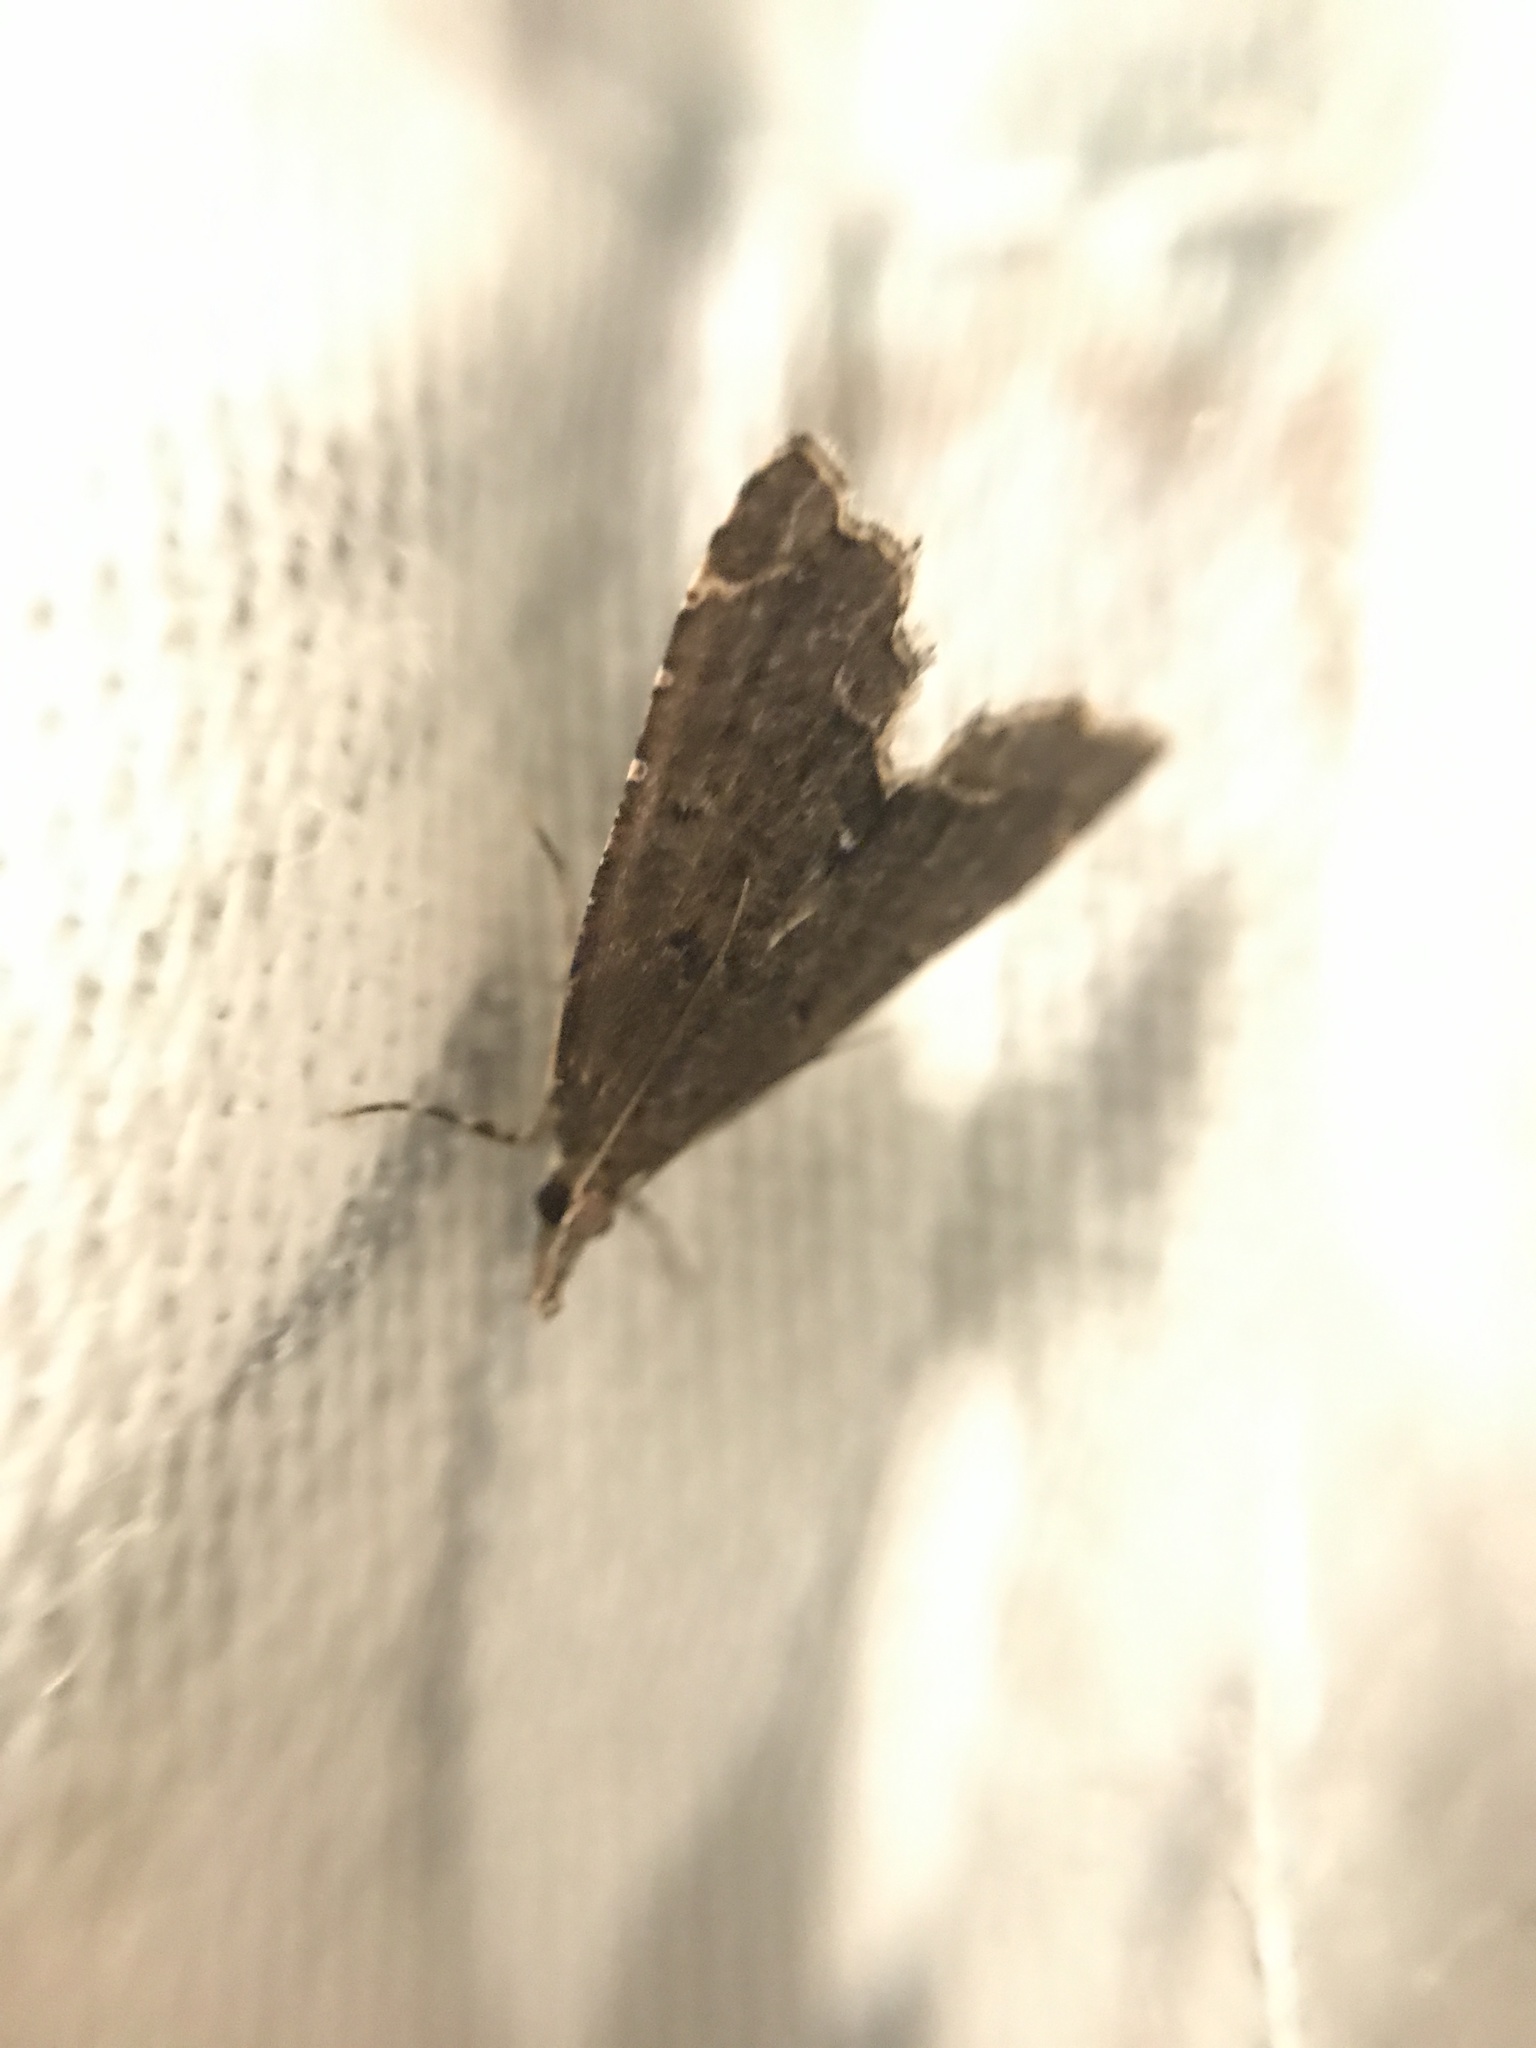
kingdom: Animalia
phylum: Arthropoda
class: Insecta
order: Lepidoptera
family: Crambidae
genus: Diplopseustis
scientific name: Diplopseustis perieresalis
